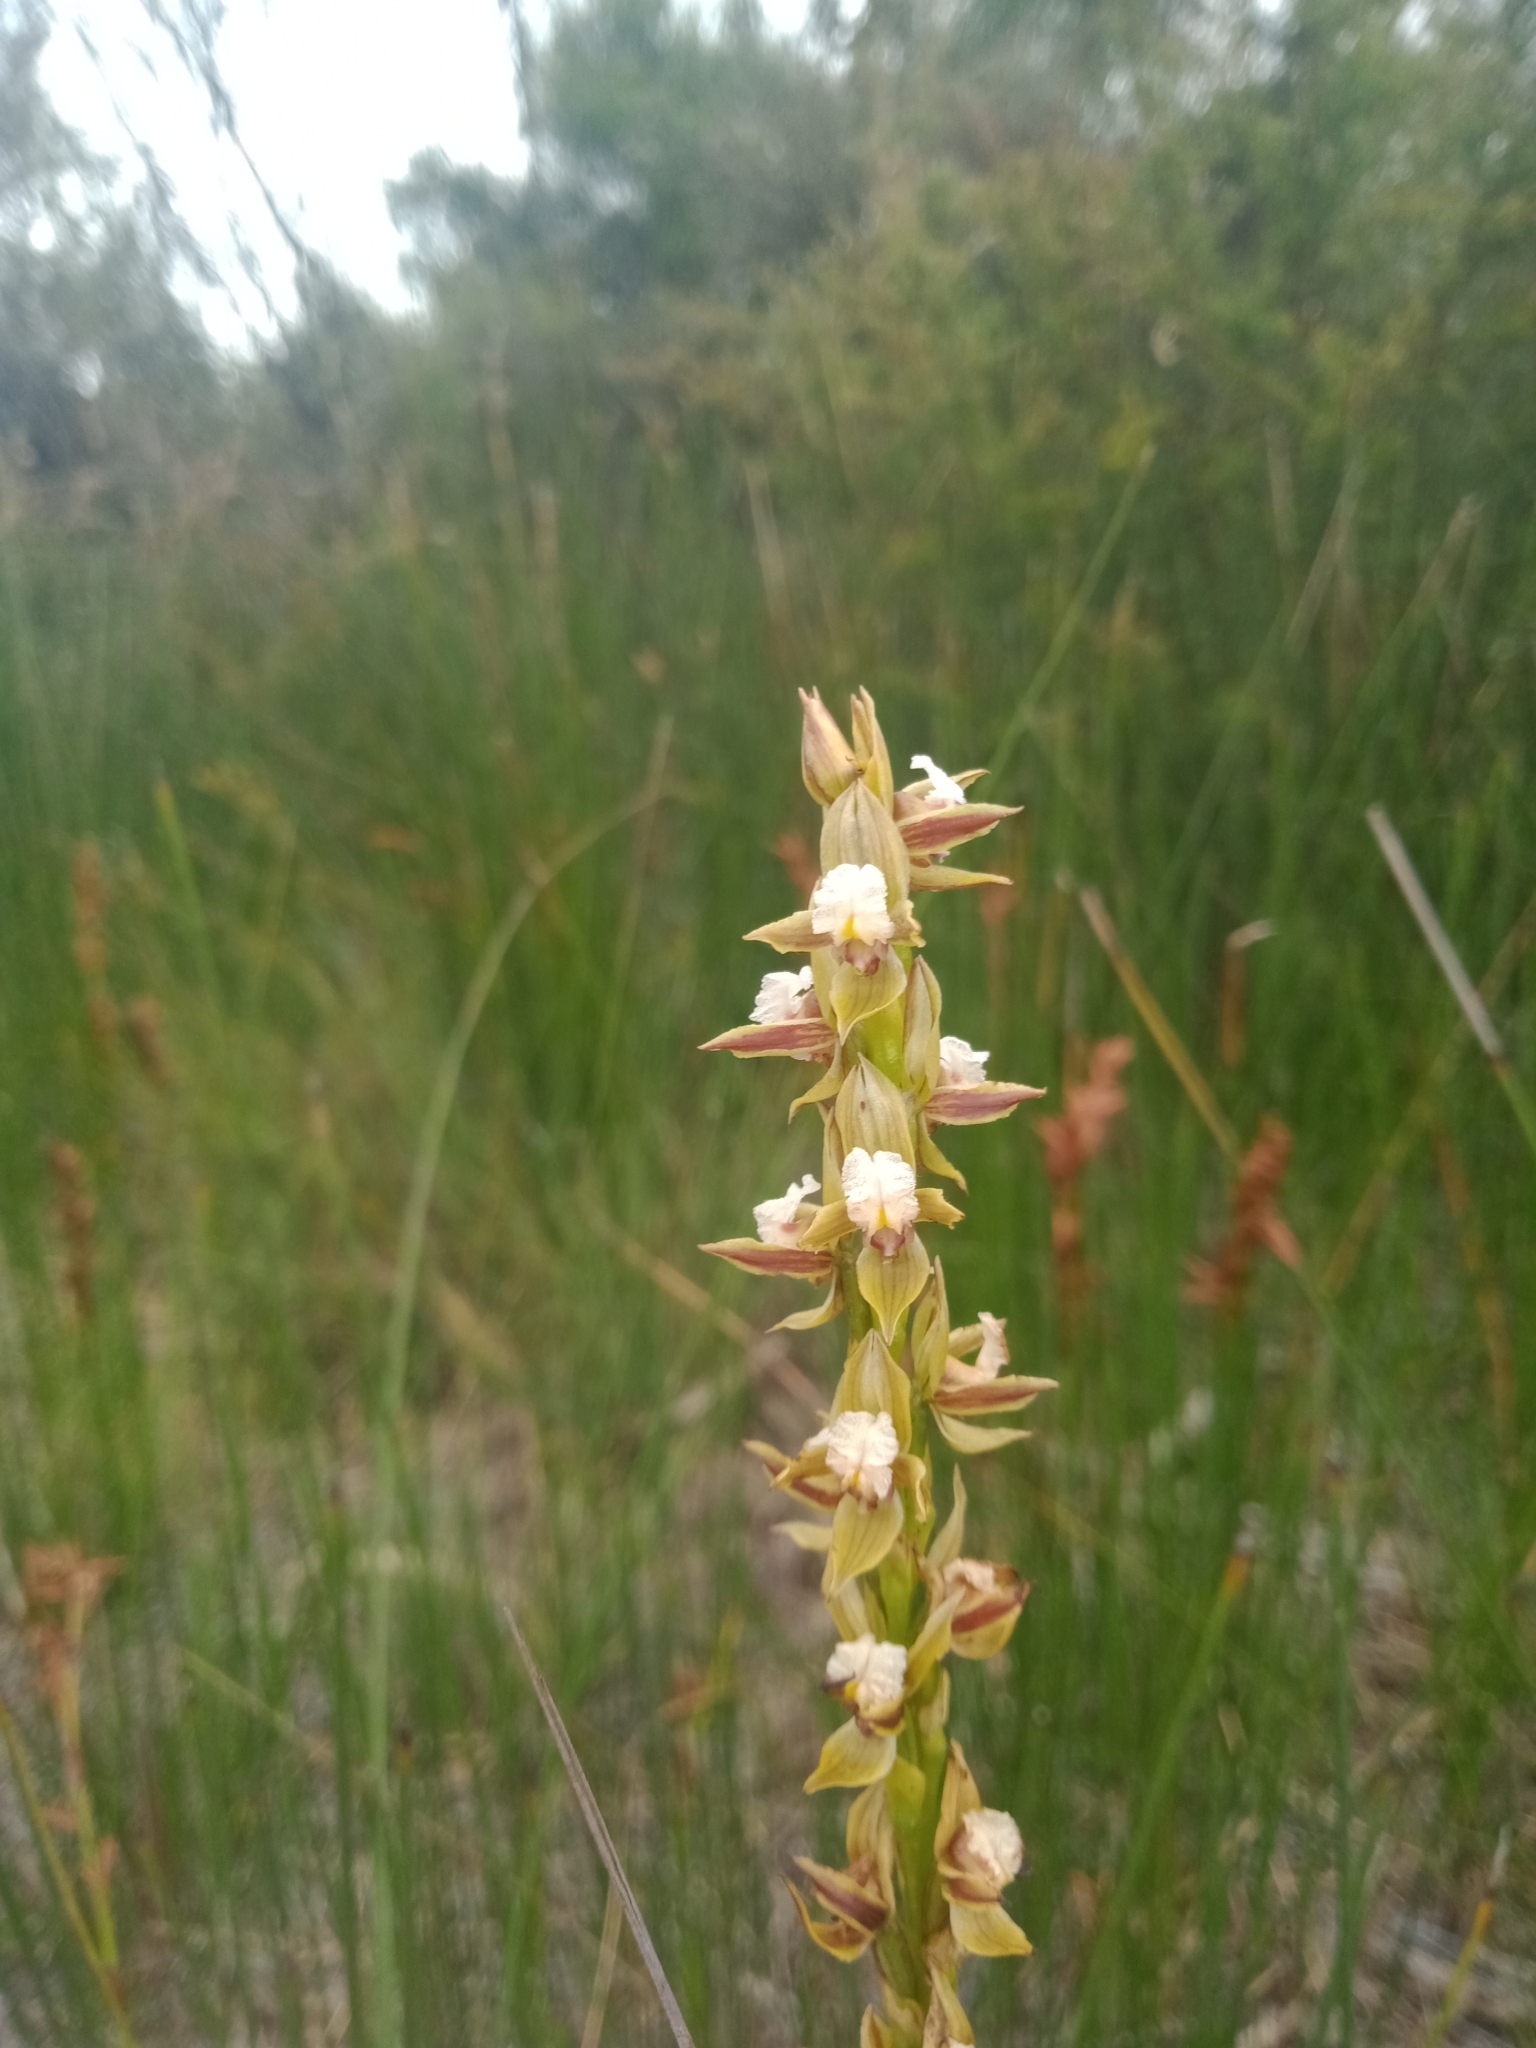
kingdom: Plantae
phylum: Tracheophyta
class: Liliopsida
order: Asparagales
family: Orchidaceae
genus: Prasophyllum
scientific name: Prasophyllum australe
